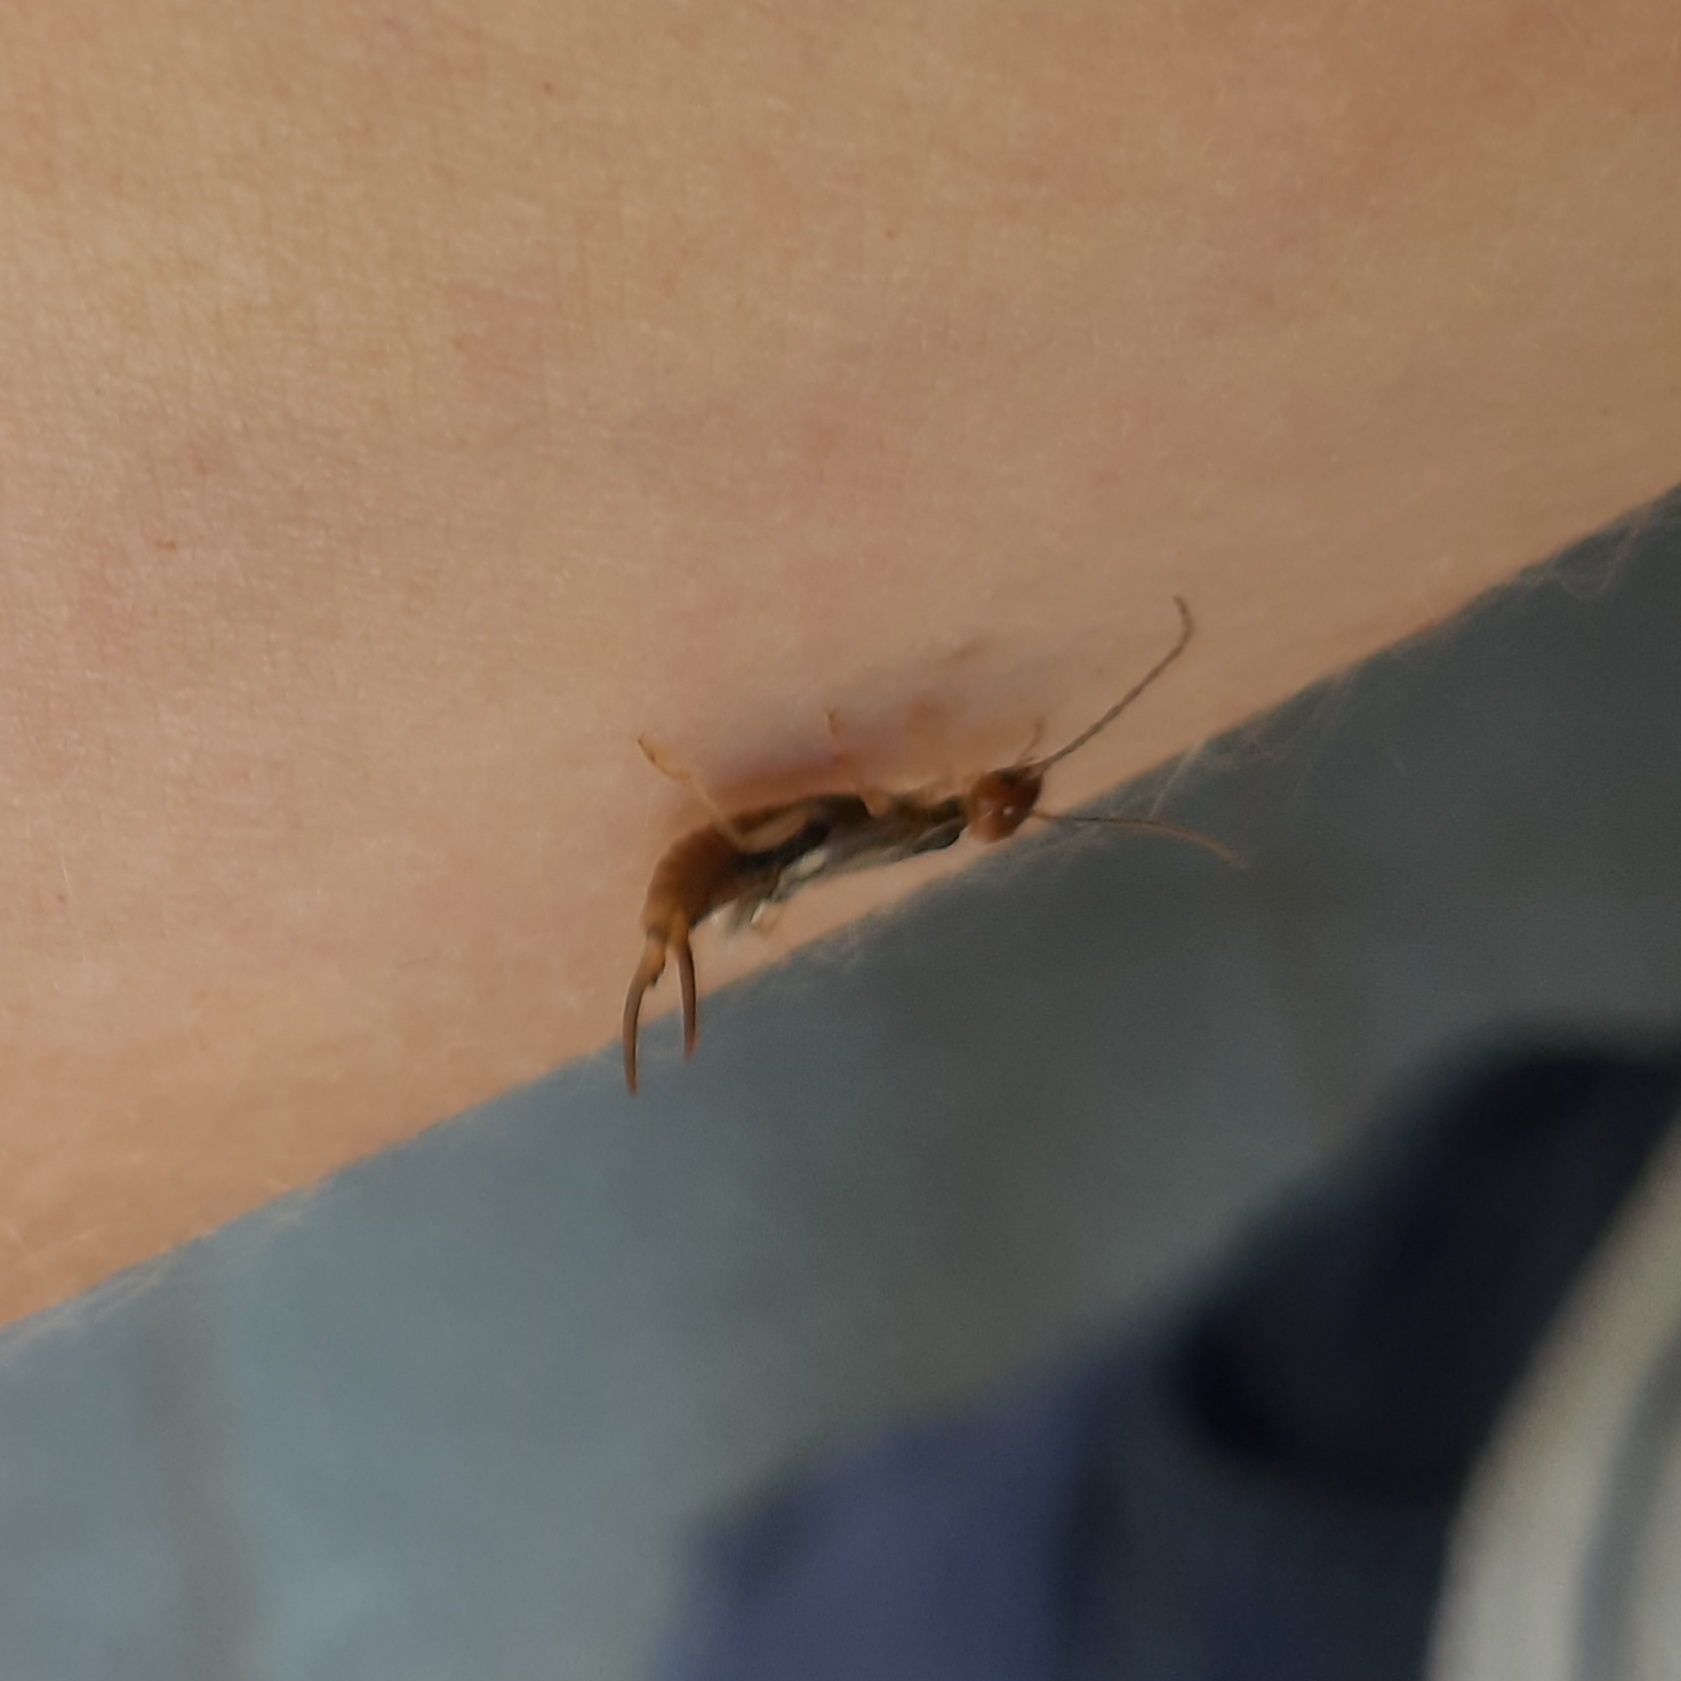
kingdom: Animalia
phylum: Arthropoda
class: Insecta
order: Dermaptera
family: Forficulidae
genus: Forficula
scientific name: Forficula
